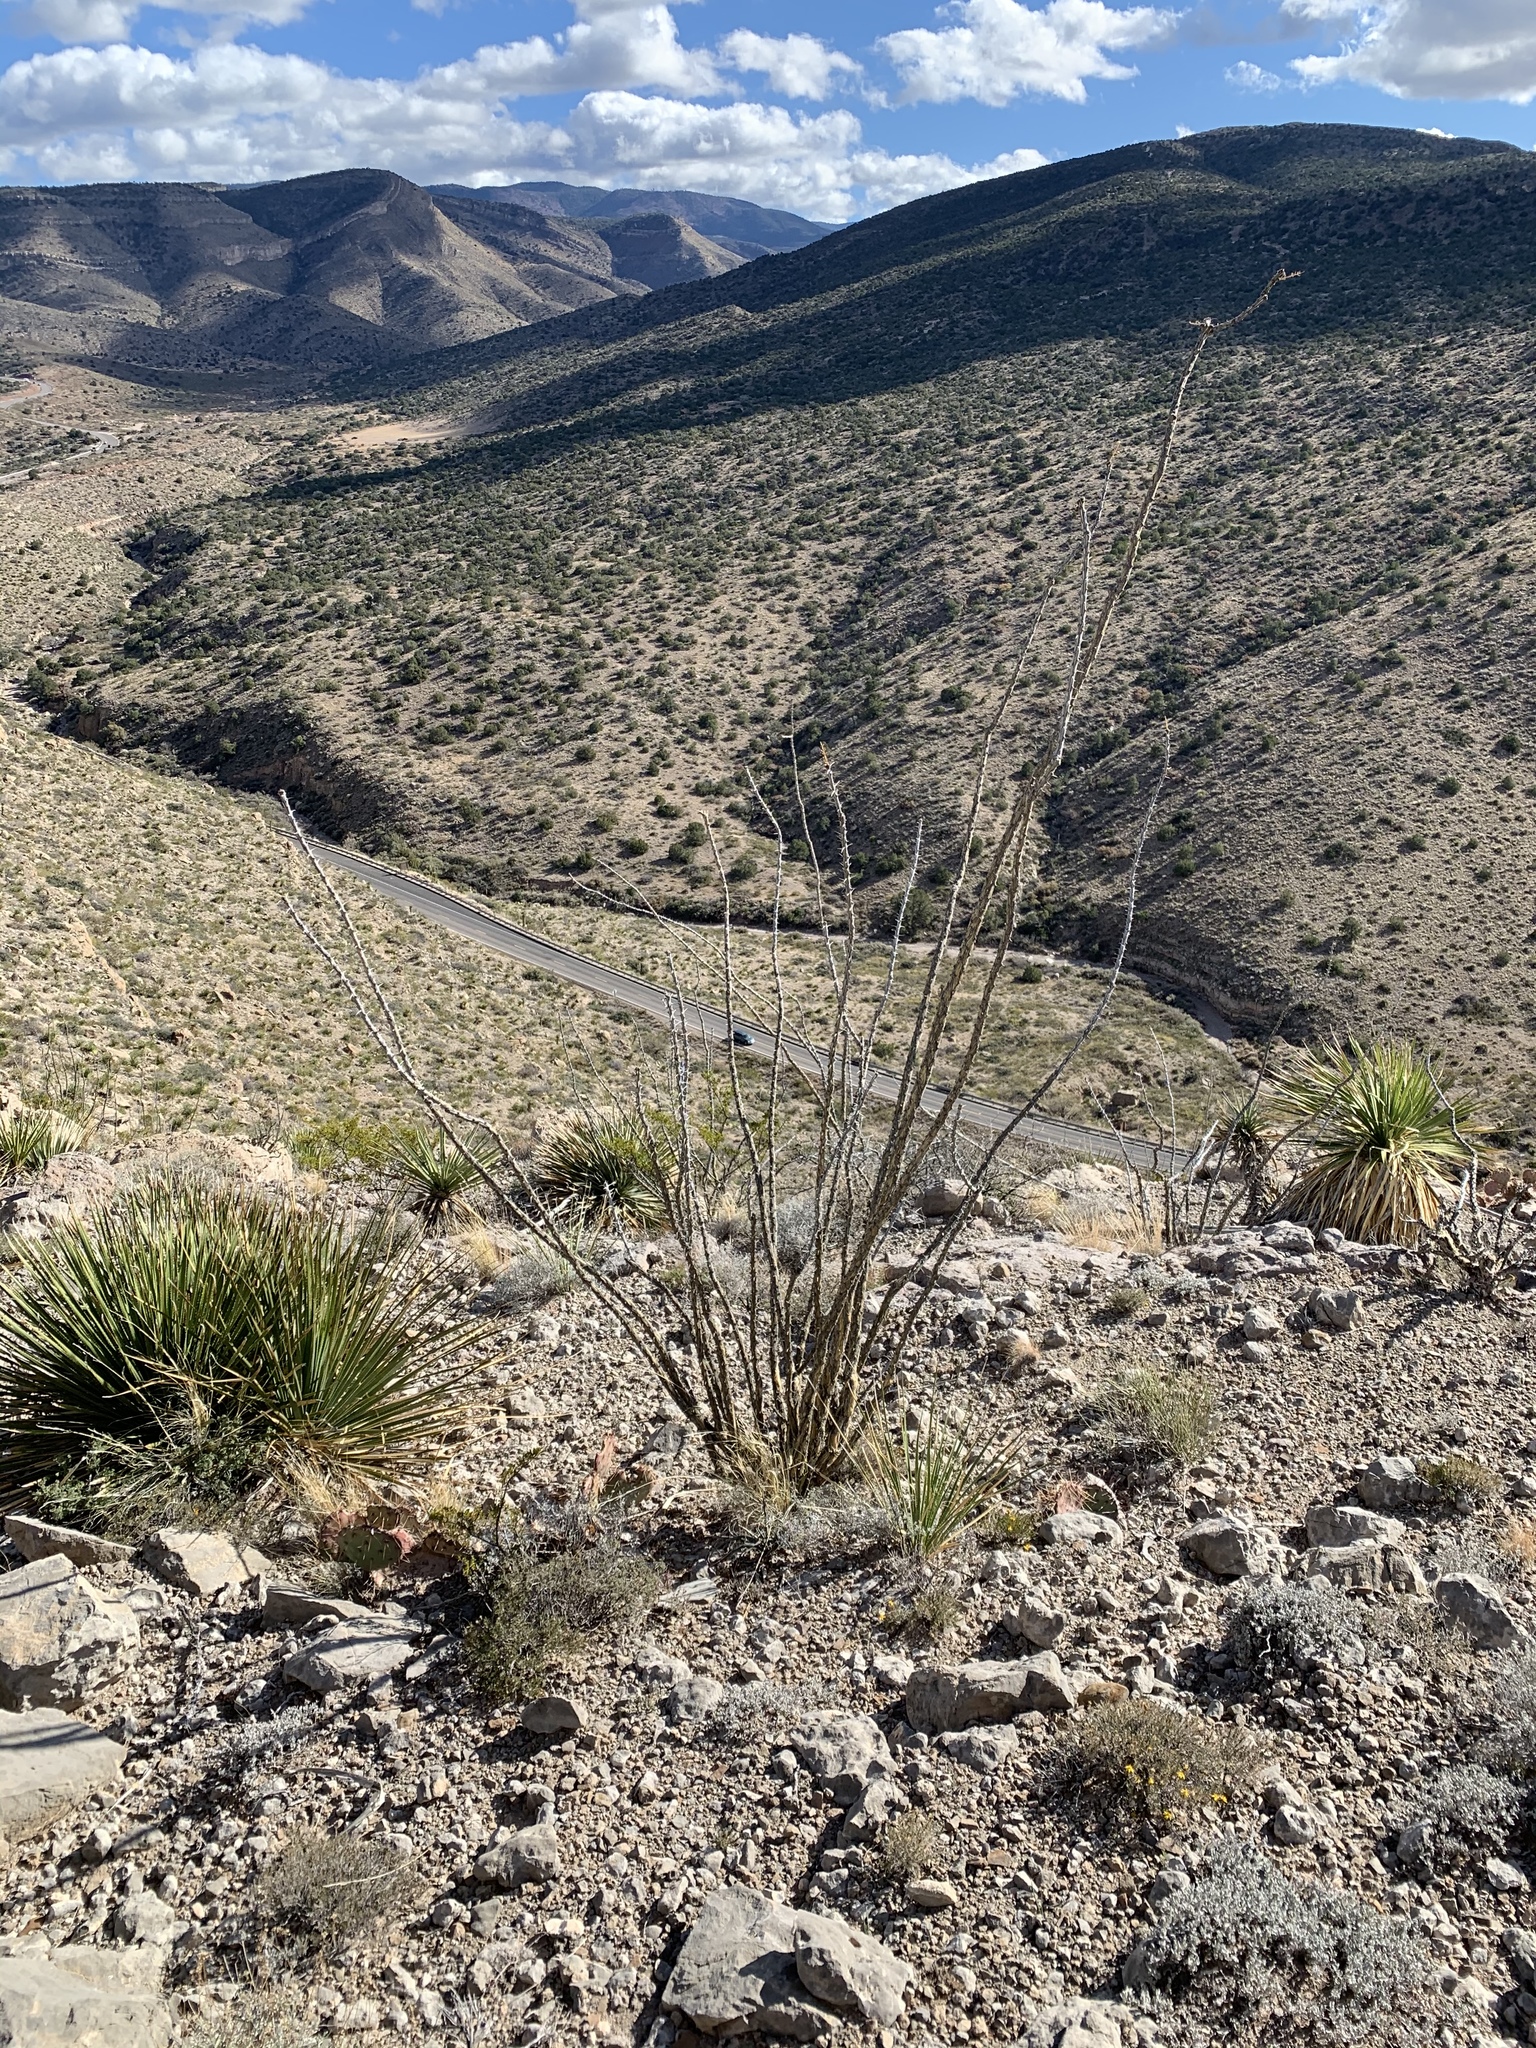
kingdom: Plantae
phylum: Tracheophyta
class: Magnoliopsida
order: Ericales
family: Fouquieriaceae
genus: Fouquieria
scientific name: Fouquieria splendens
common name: Vine-cactus
